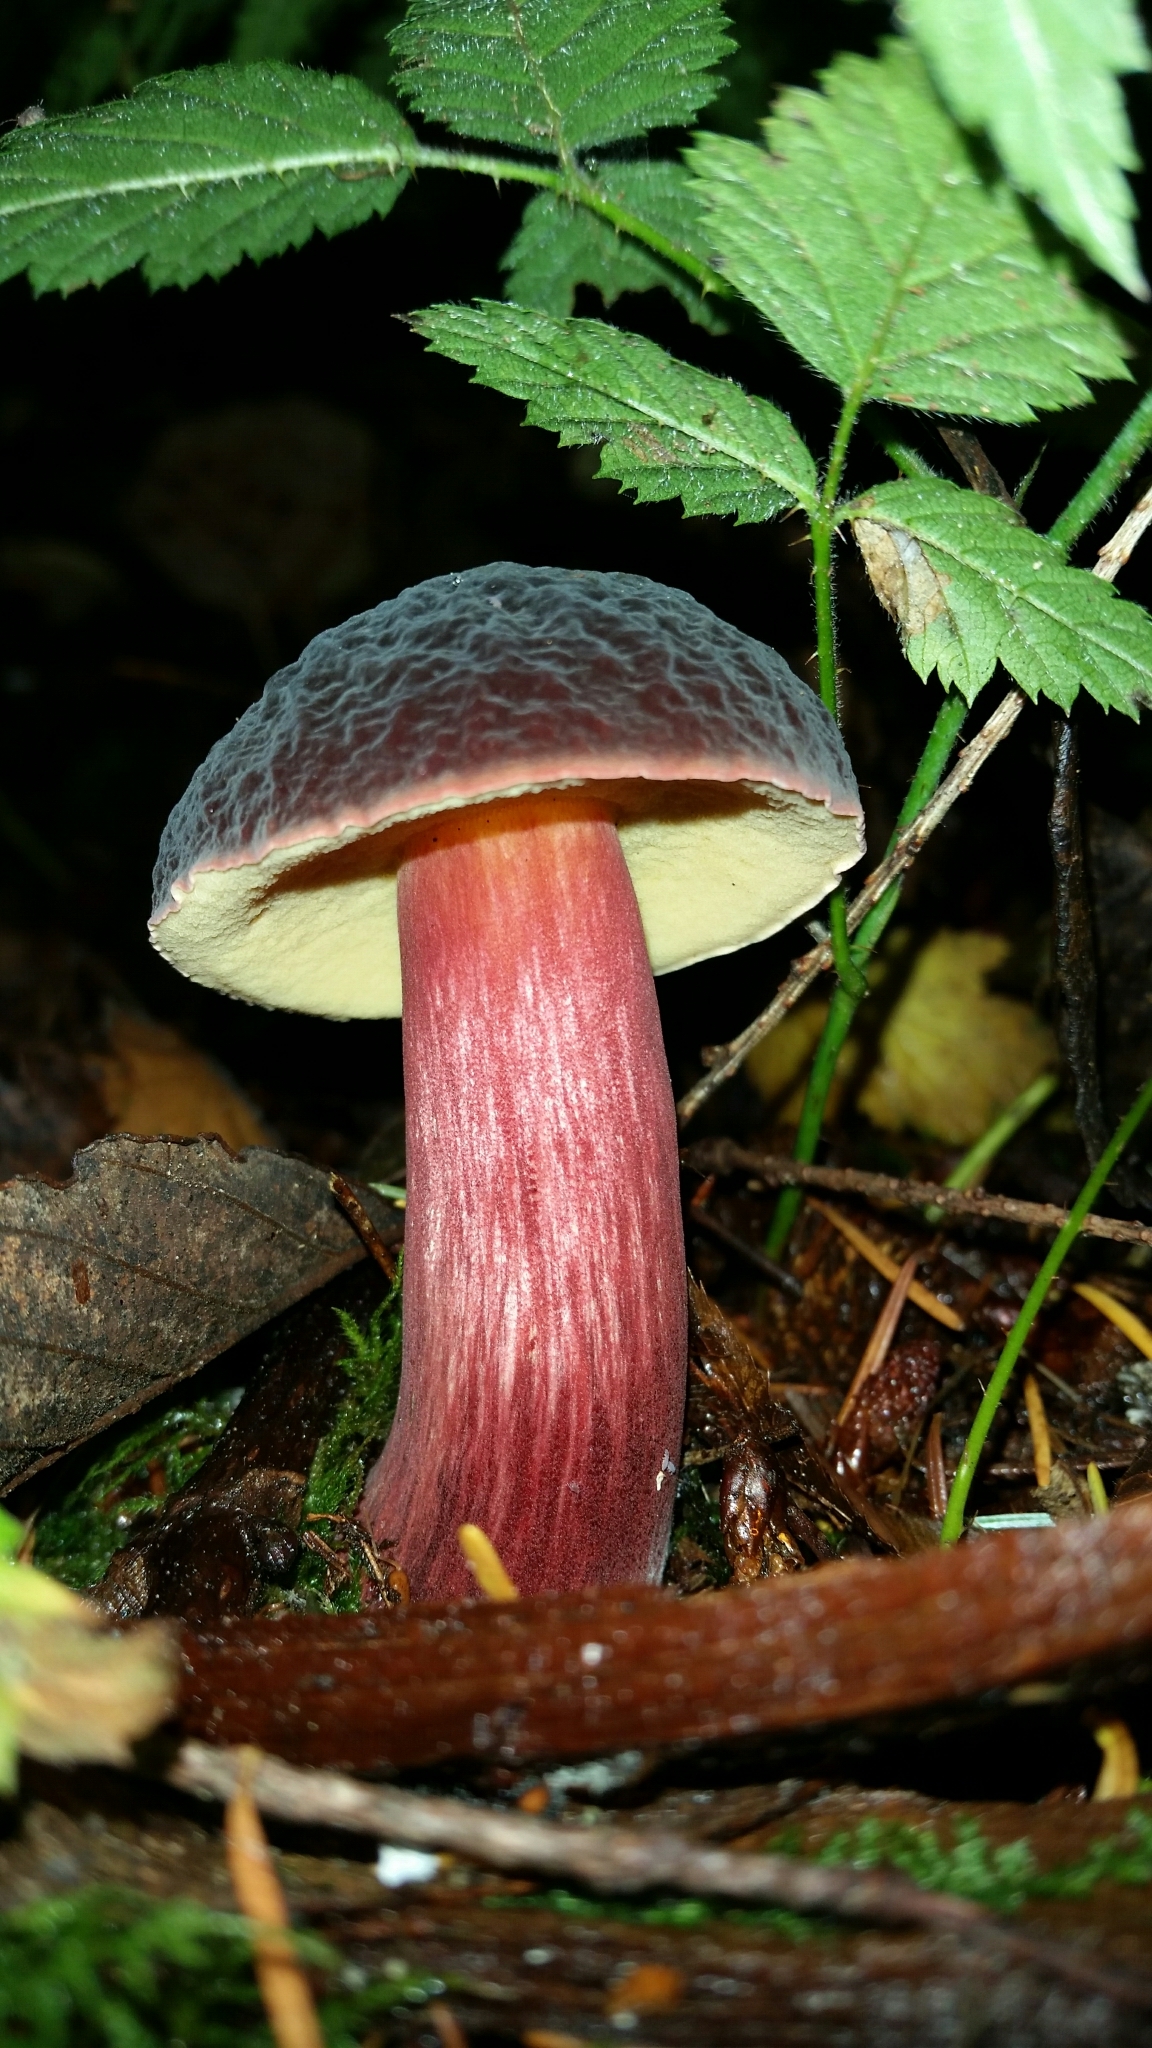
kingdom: Fungi
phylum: Basidiomycota
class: Agaricomycetes
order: Boletales
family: Boletaceae
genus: Xerocomellus
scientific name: Xerocomellus atropurpureus
